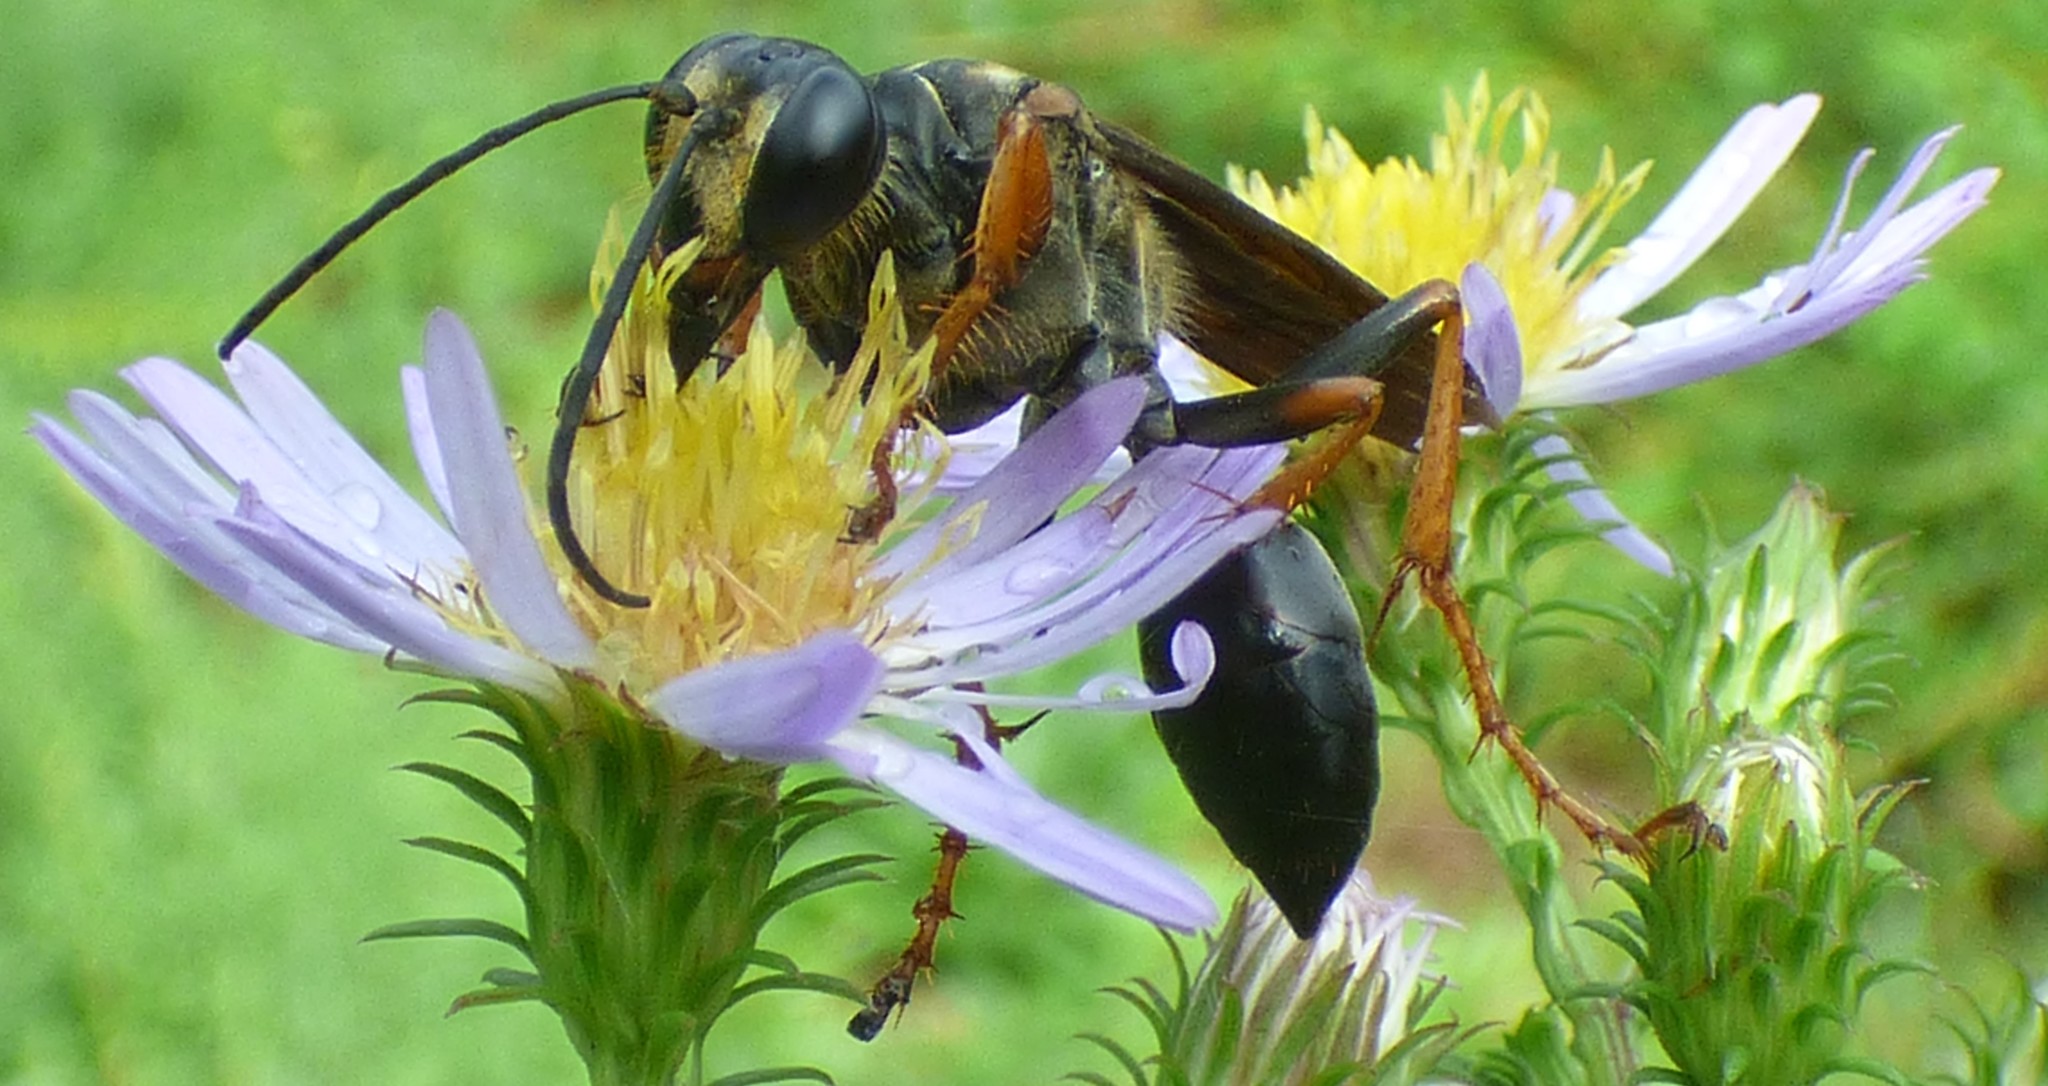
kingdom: Animalia
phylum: Arthropoda
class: Insecta
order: Hymenoptera
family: Sphecidae
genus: Sphex
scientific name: Sphex flavovestitus
